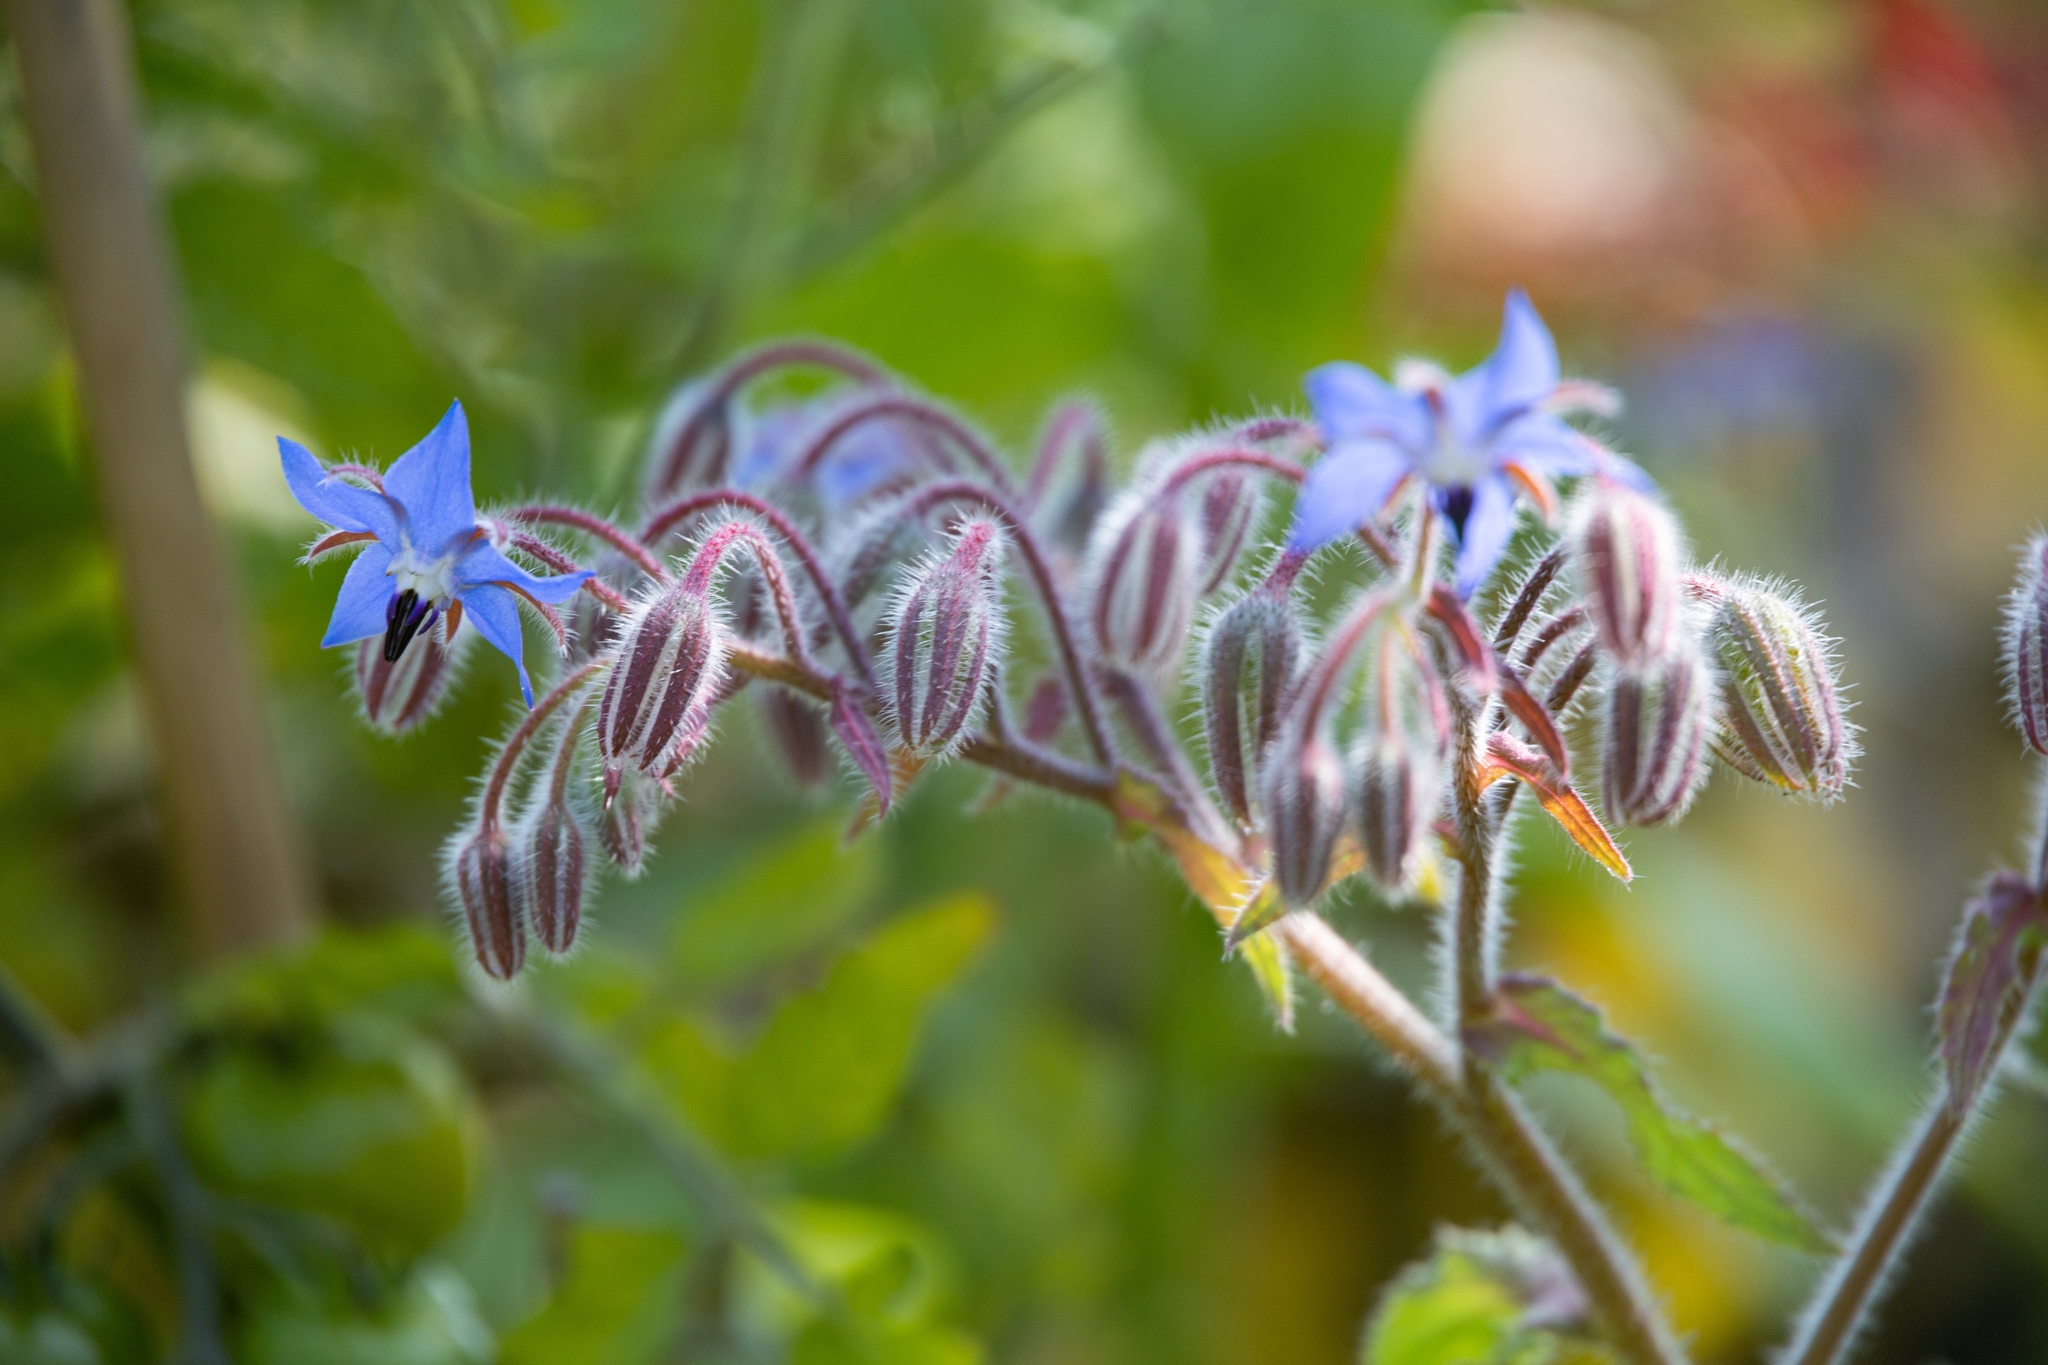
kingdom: Plantae
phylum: Tracheophyta
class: Magnoliopsida
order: Boraginales
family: Boraginaceae
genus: Borago
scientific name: Borago officinalis
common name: Borage
